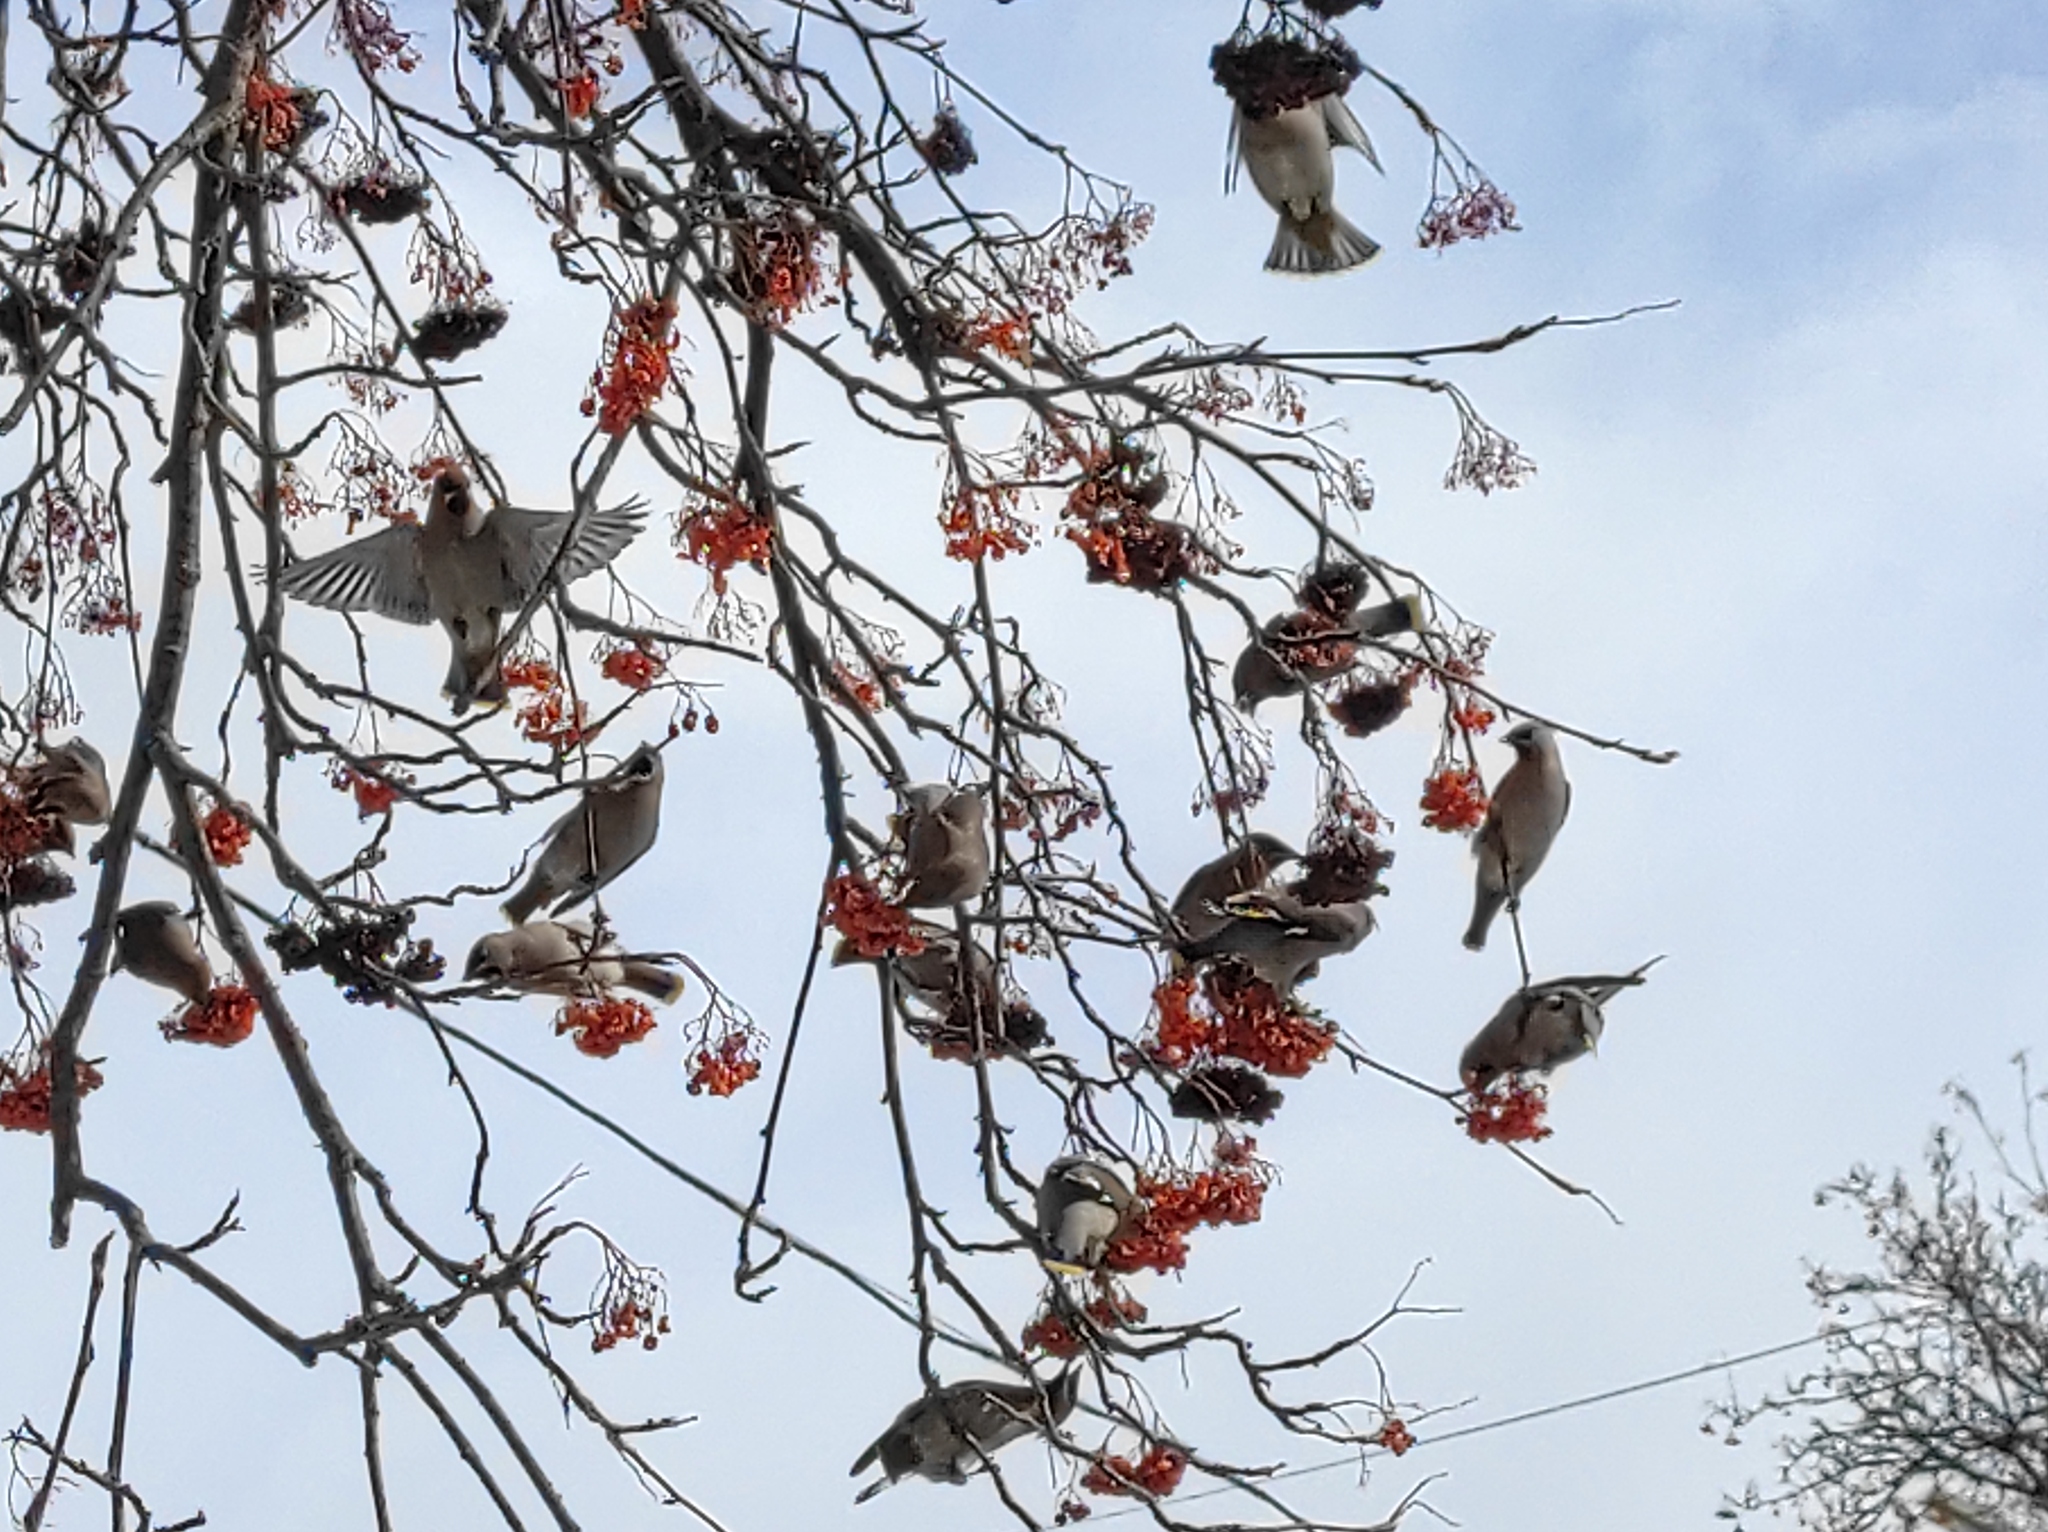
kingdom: Animalia
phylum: Chordata
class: Aves
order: Passeriformes
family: Bombycillidae
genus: Bombycilla
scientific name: Bombycilla garrulus
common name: Bohemian waxwing
